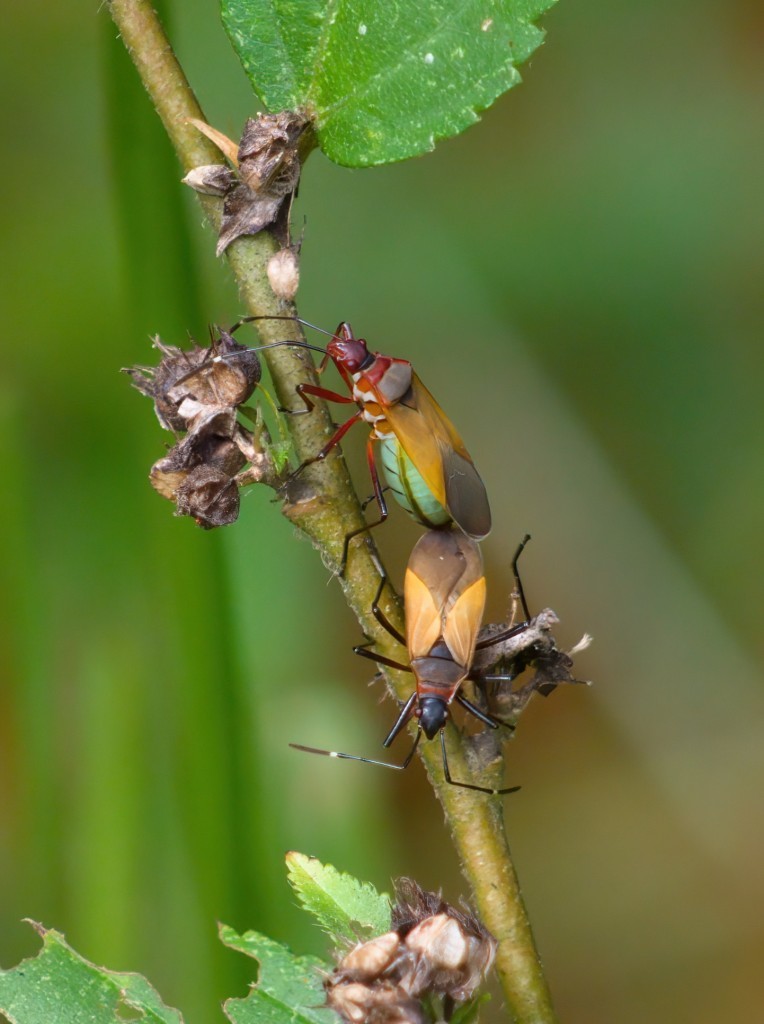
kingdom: Animalia
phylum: Arthropoda
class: Insecta
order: Hemiptera
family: Pyrrhocoridae
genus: Dysdercus
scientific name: Dysdercus
